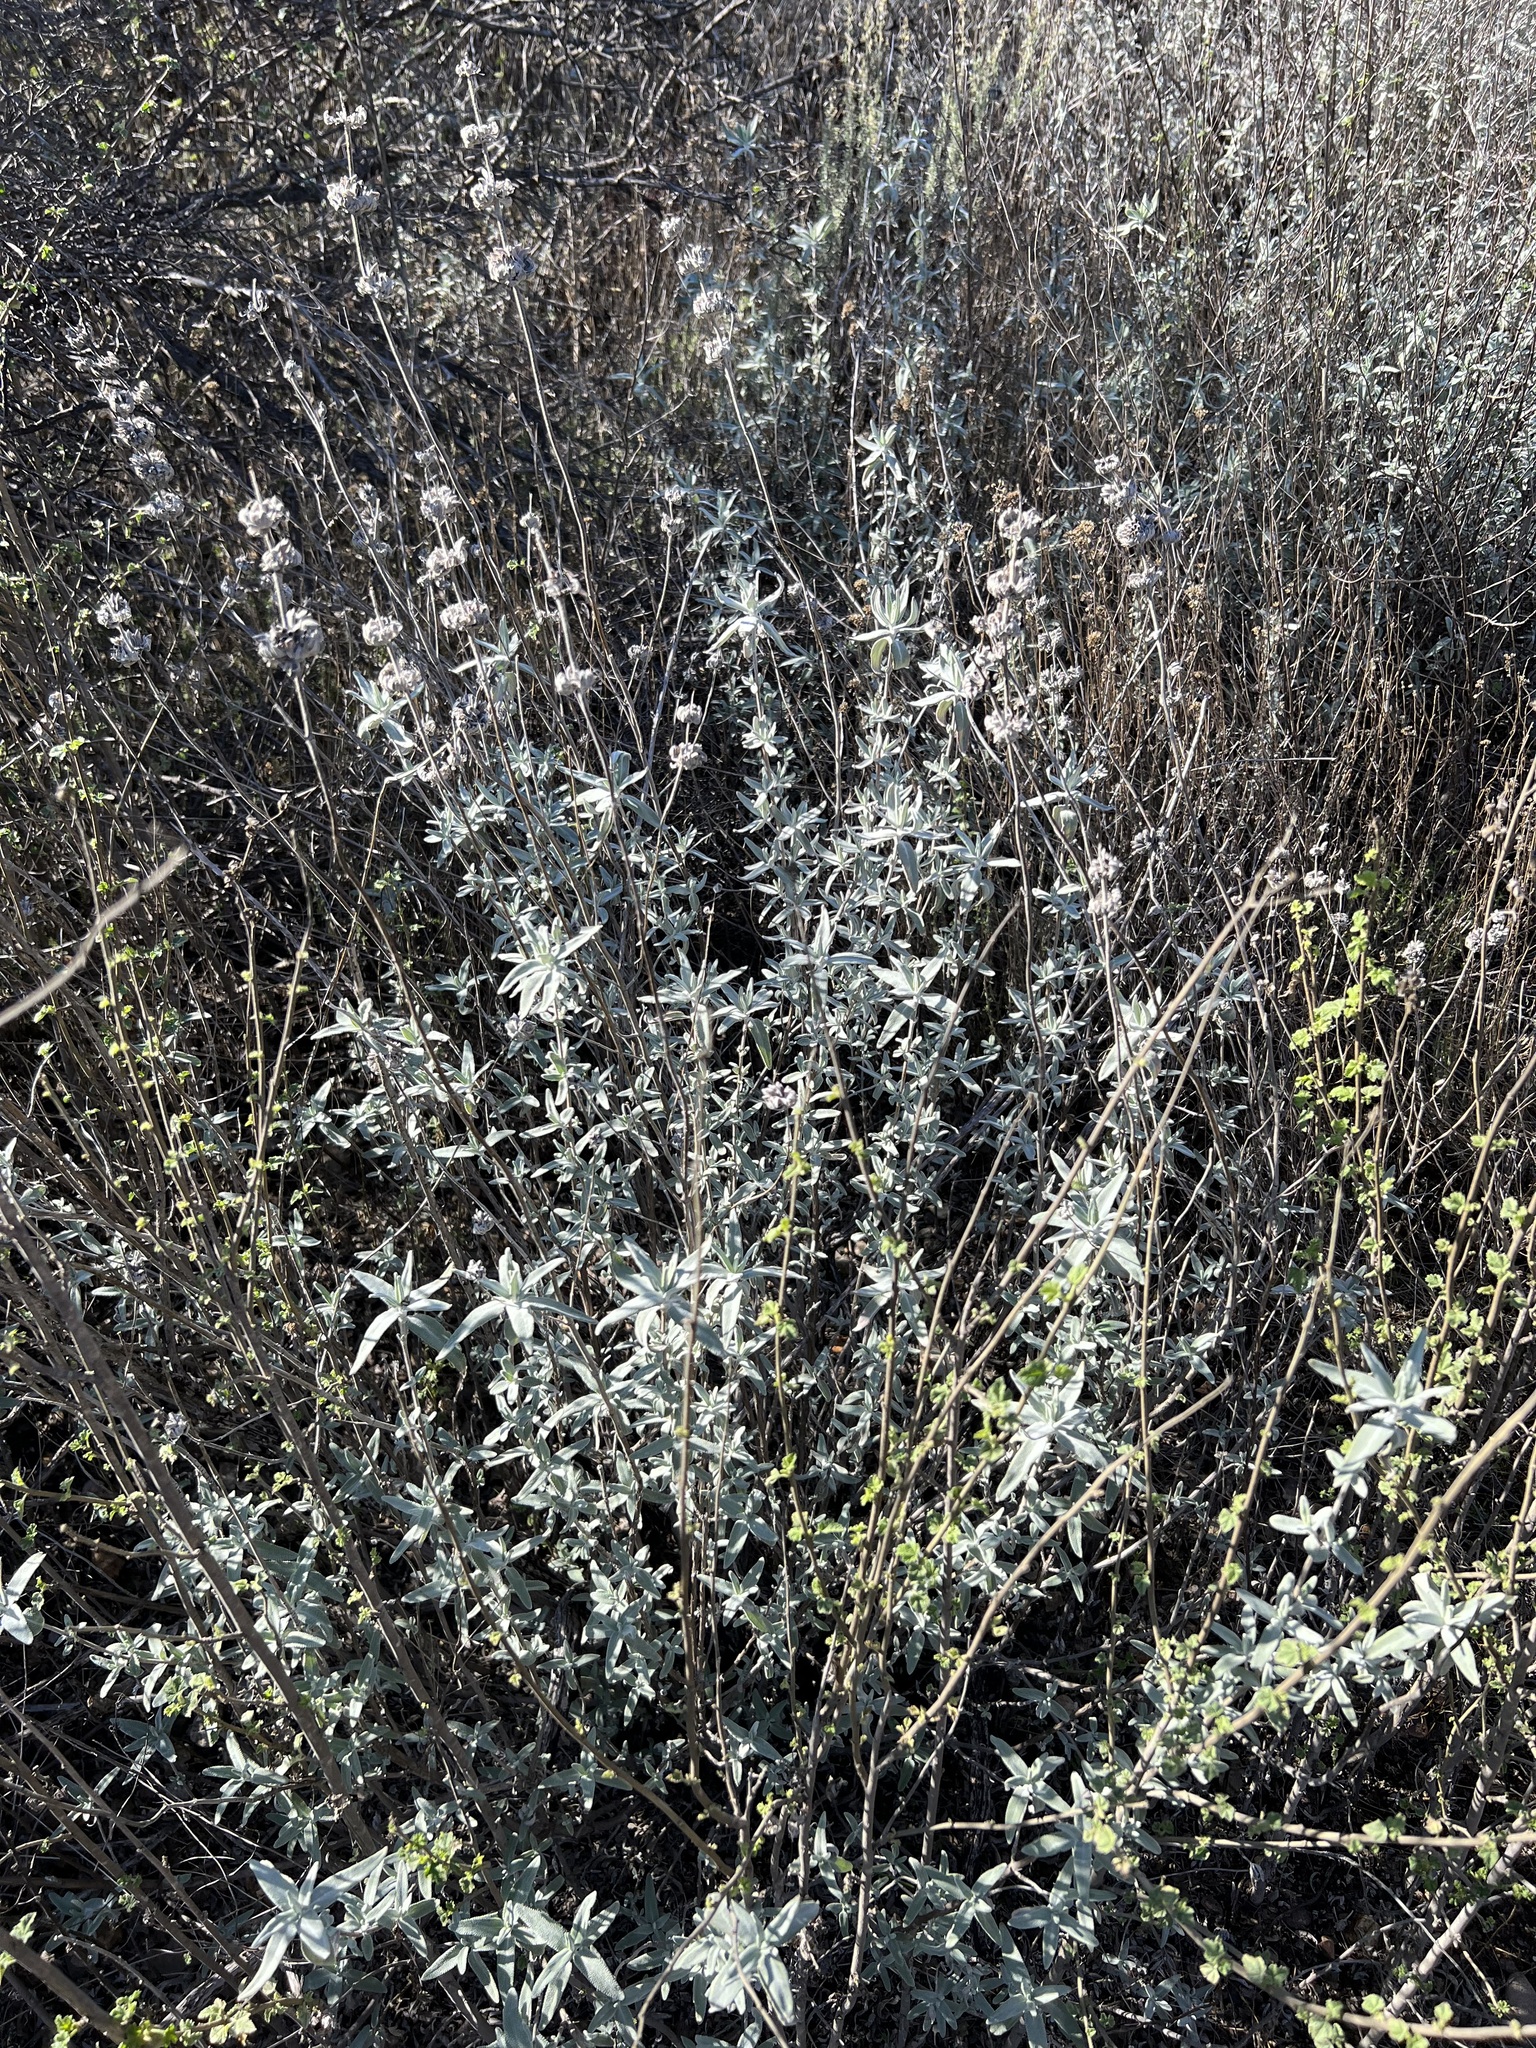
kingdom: Plantae
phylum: Tracheophyta
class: Magnoliopsida
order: Lamiales
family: Lamiaceae
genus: Salvia
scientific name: Salvia leucophylla
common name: Purple sage
